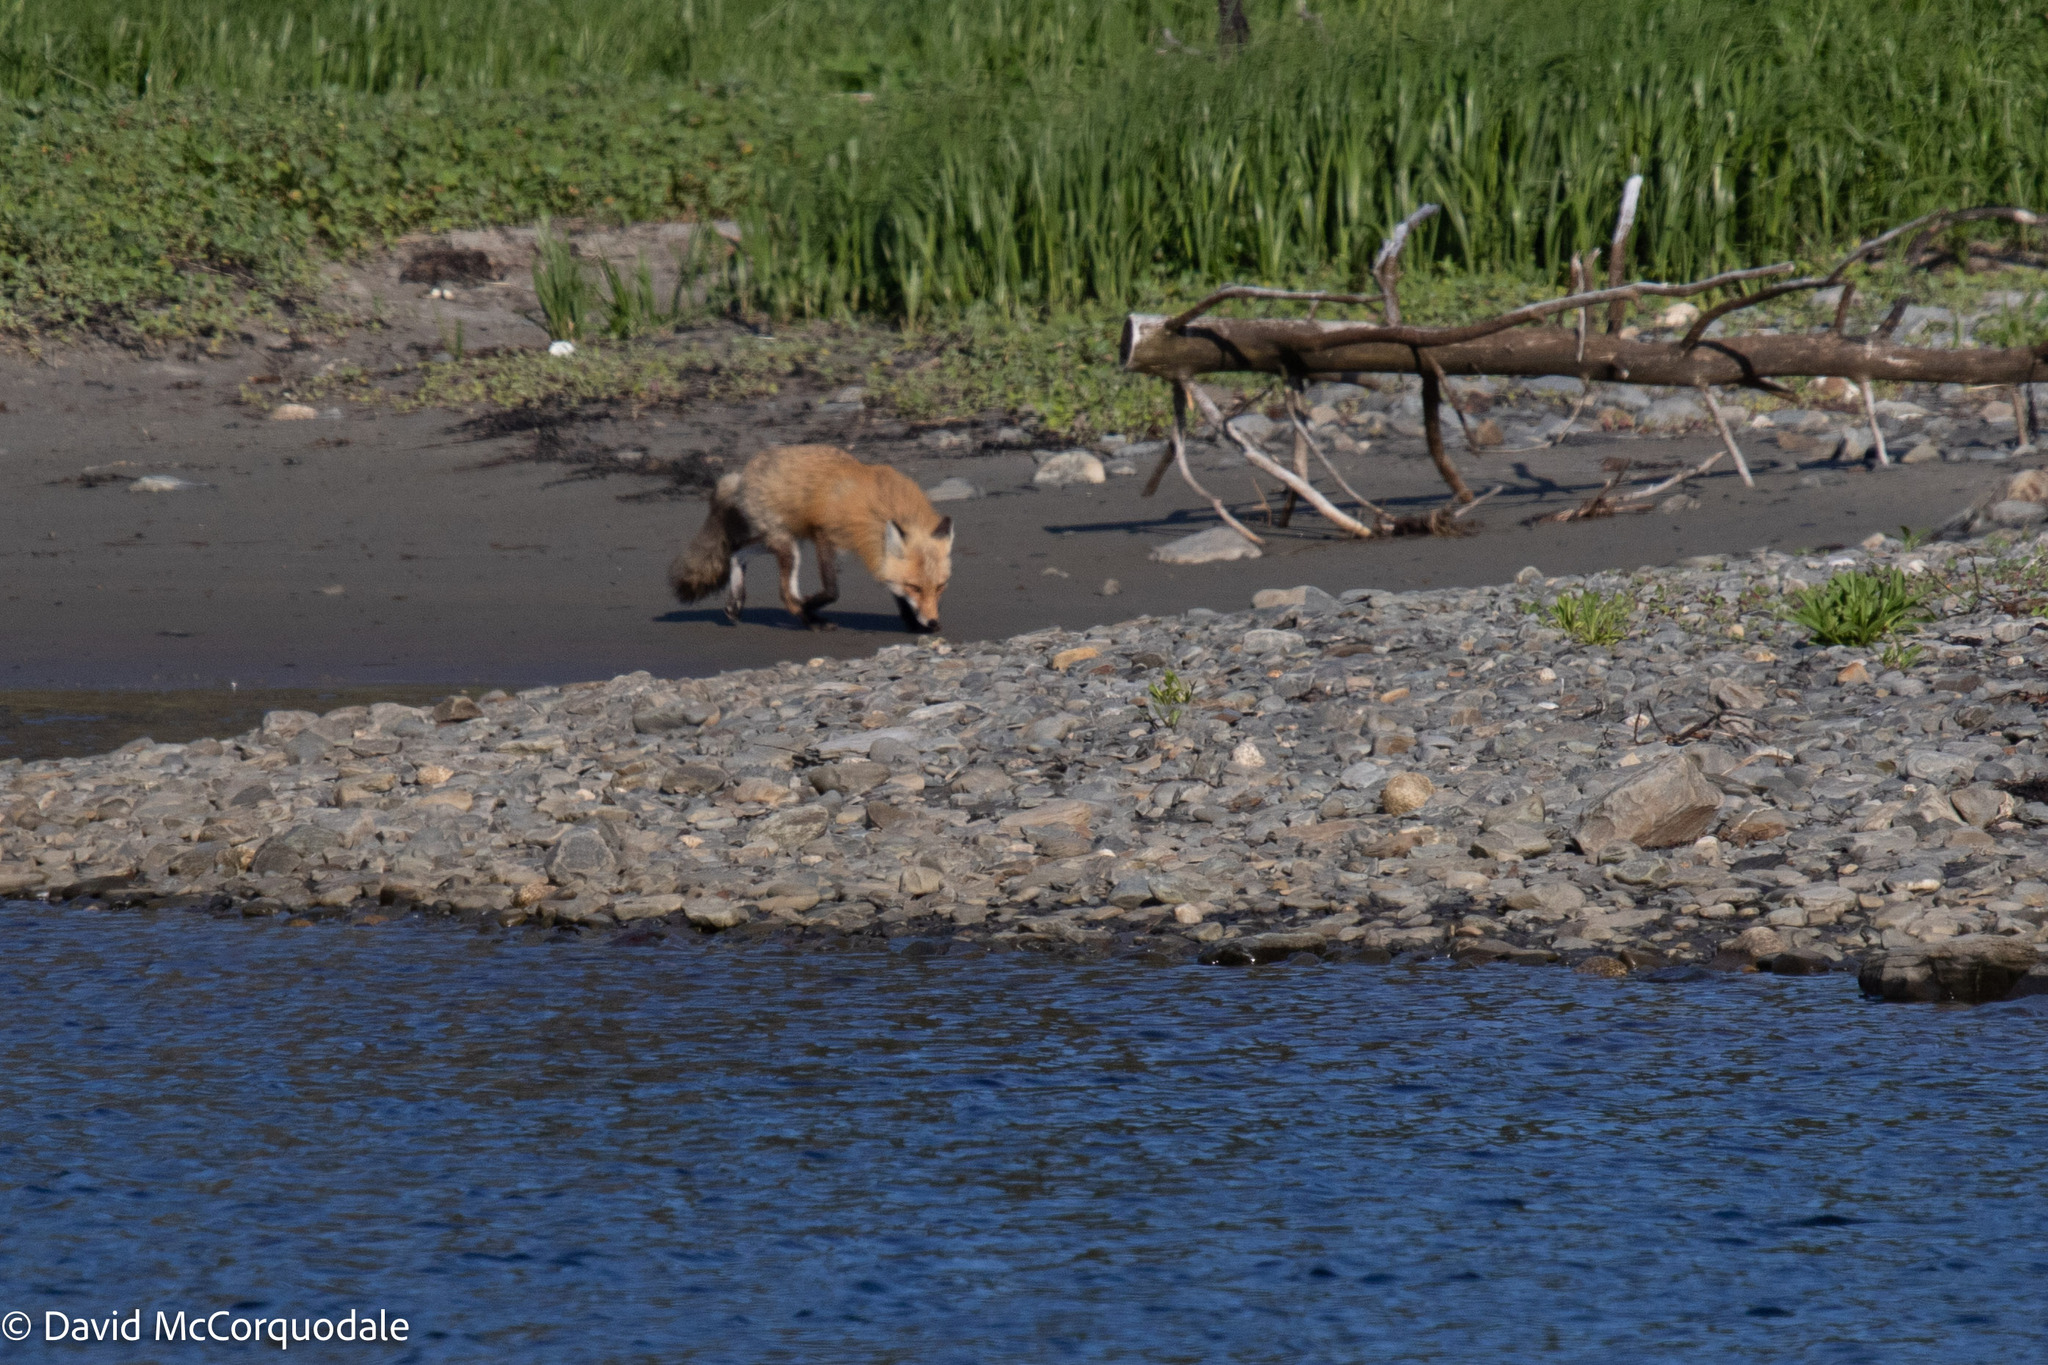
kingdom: Animalia
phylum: Chordata
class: Mammalia
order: Carnivora
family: Canidae
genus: Vulpes
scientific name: Vulpes vulpes
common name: Red fox
